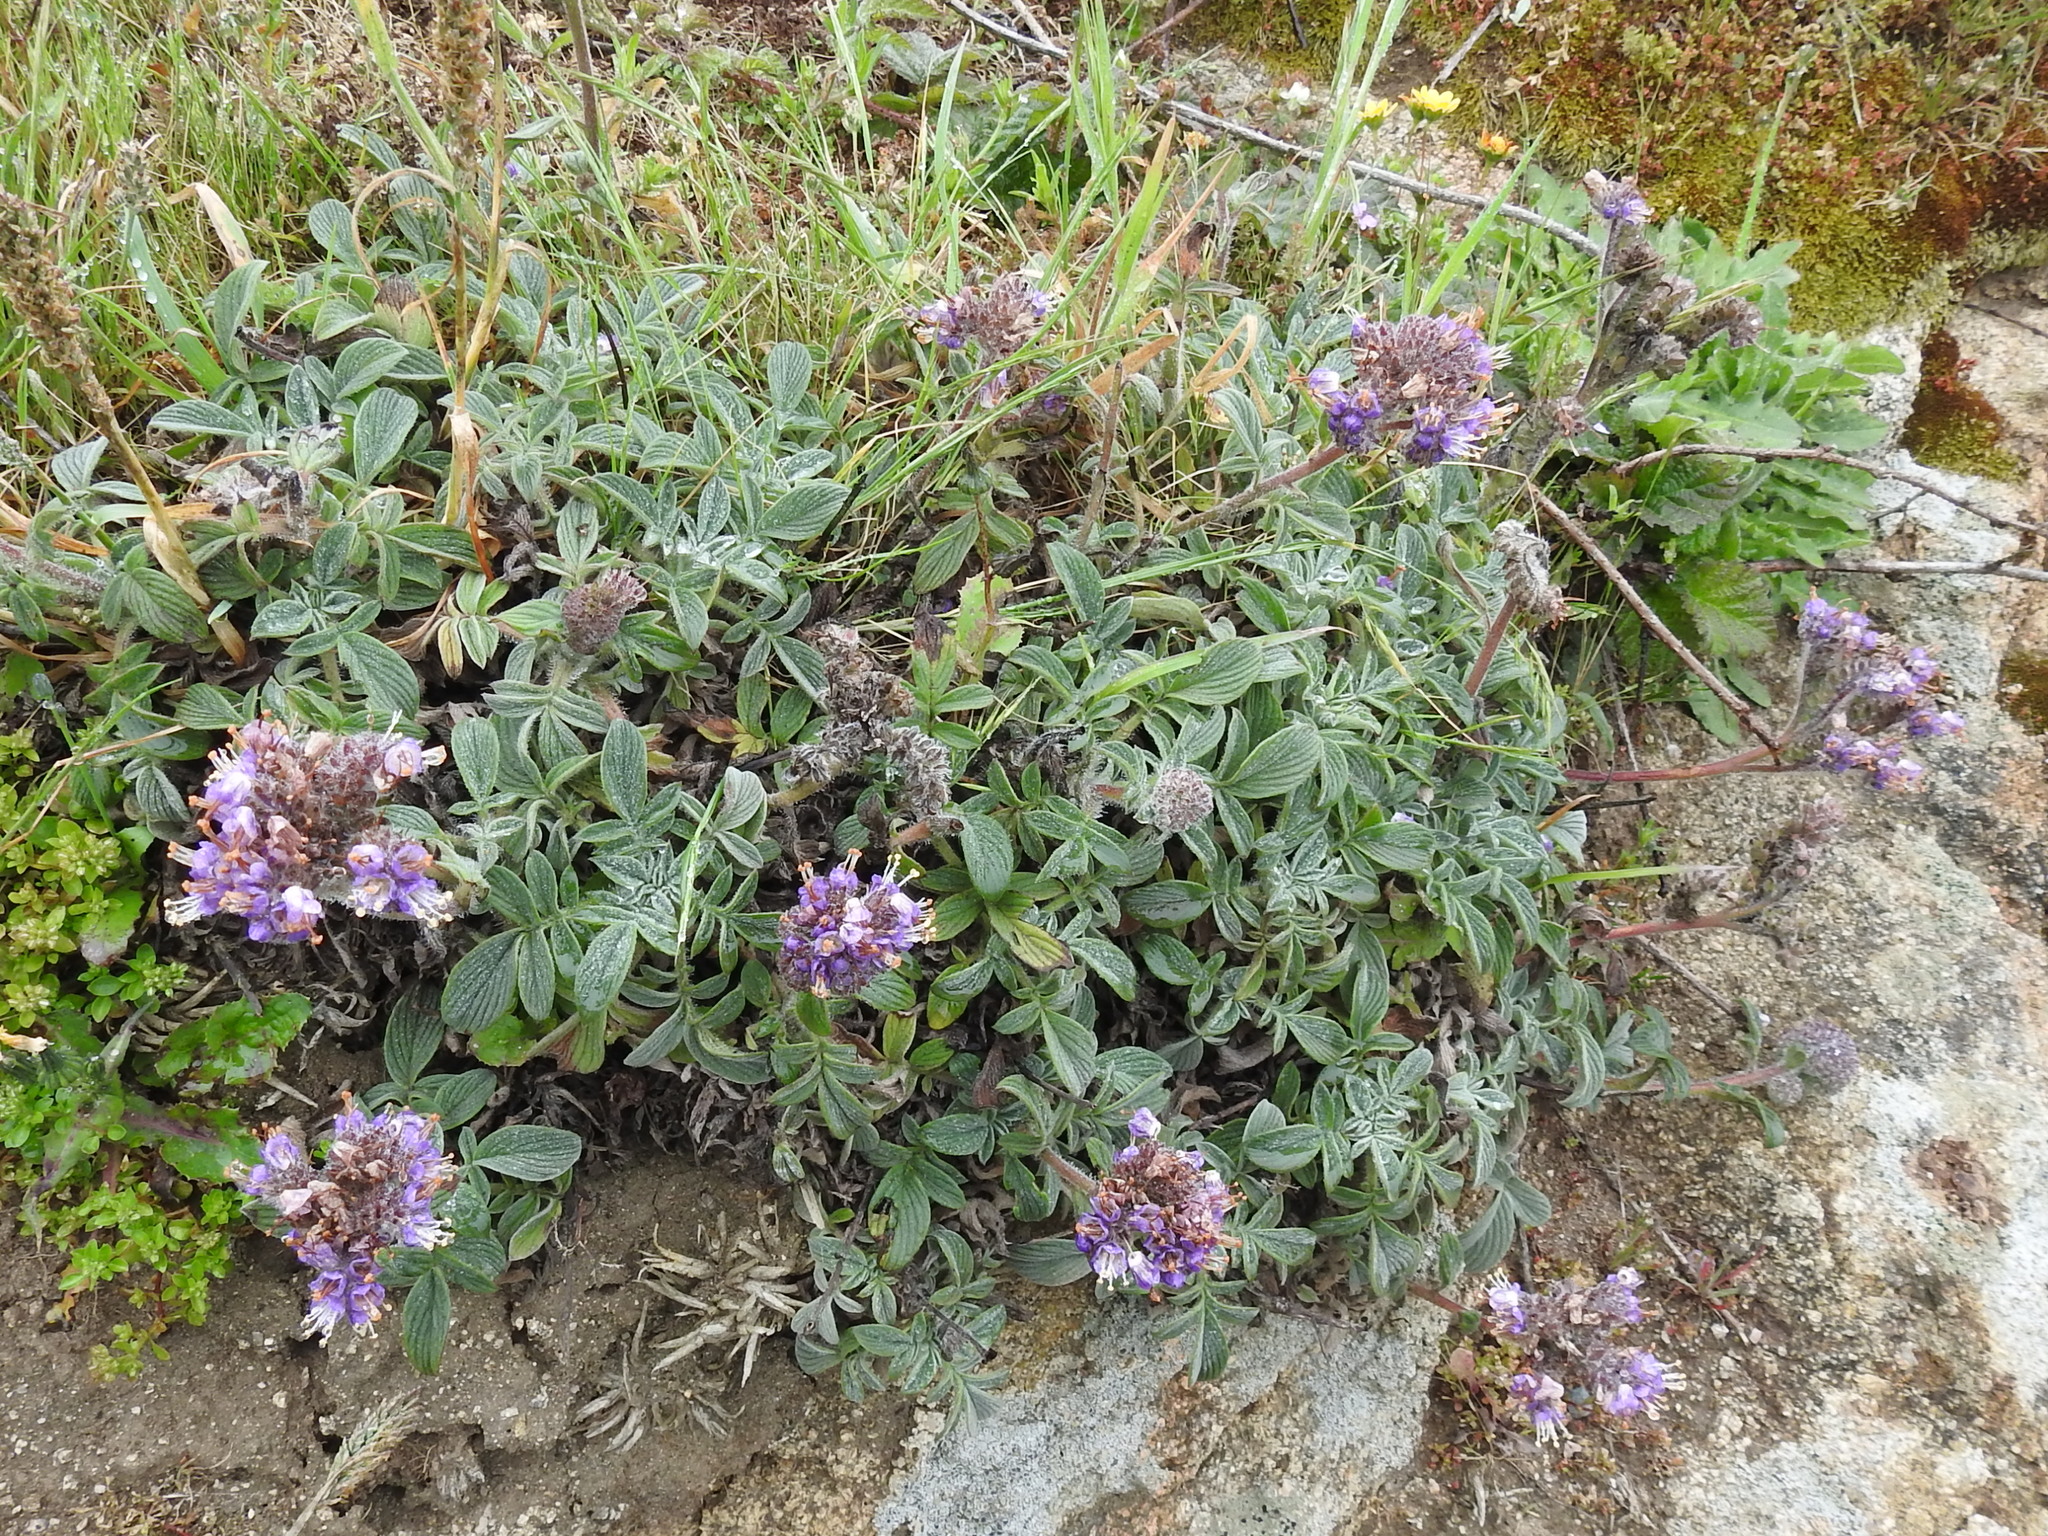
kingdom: Plantae
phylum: Tracheophyta
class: Magnoliopsida
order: Boraginales
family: Hydrophyllaceae
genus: Phacelia
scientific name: Phacelia californica
